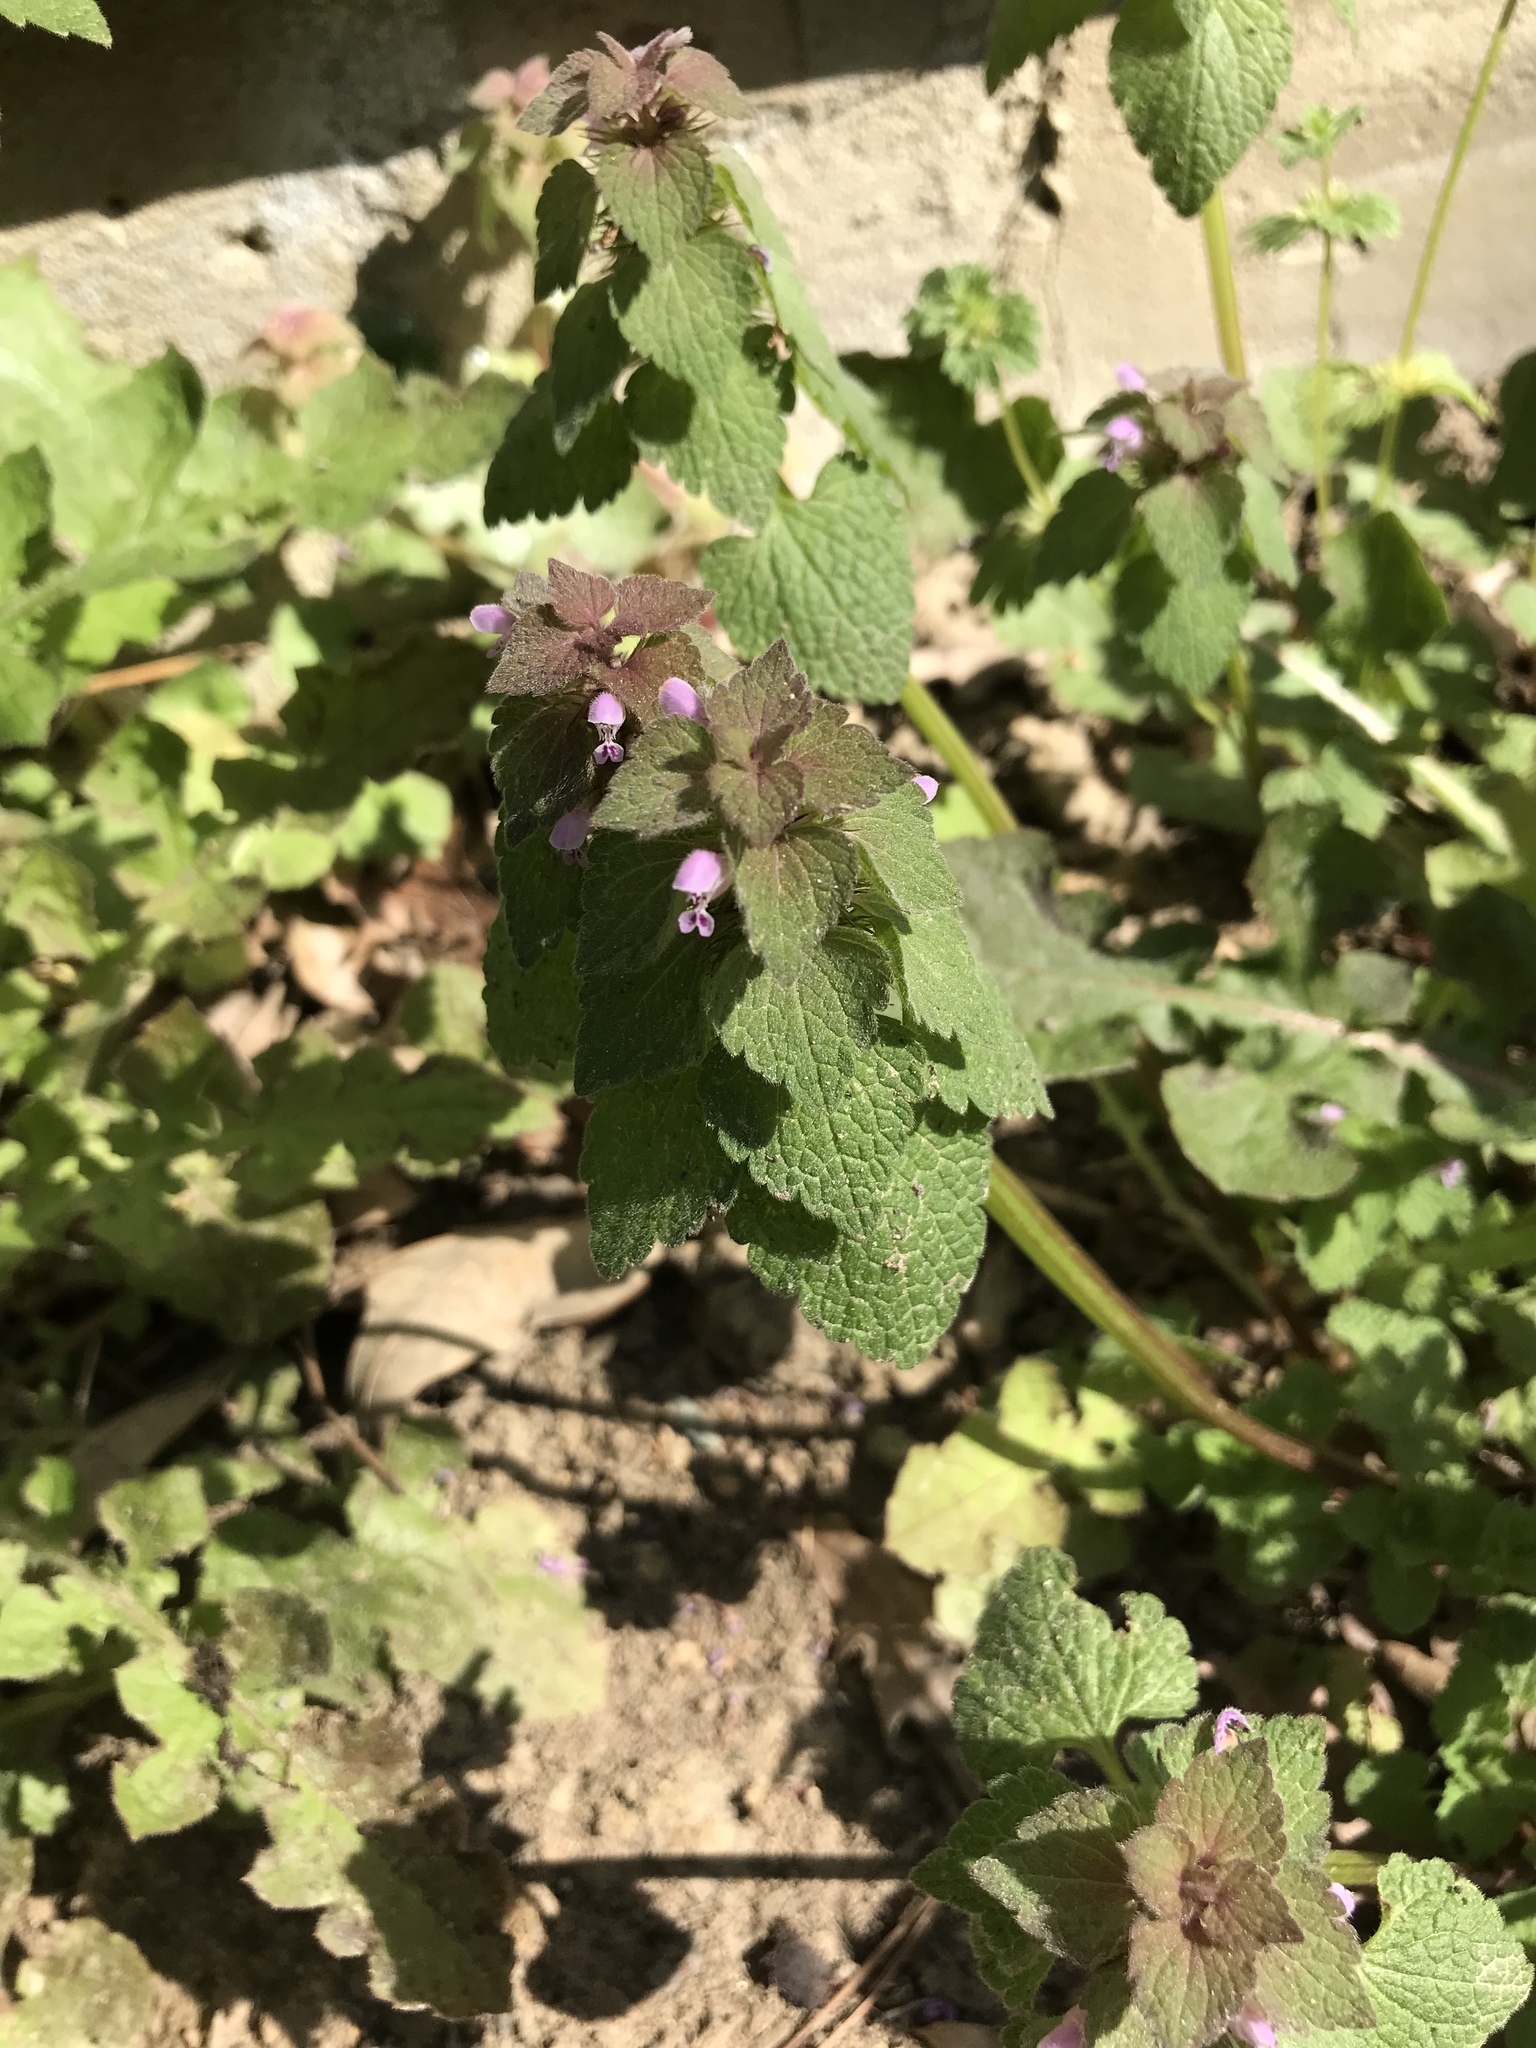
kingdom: Plantae
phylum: Tracheophyta
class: Magnoliopsida
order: Lamiales
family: Lamiaceae
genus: Lamium
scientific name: Lamium purpureum
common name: Red dead-nettle
